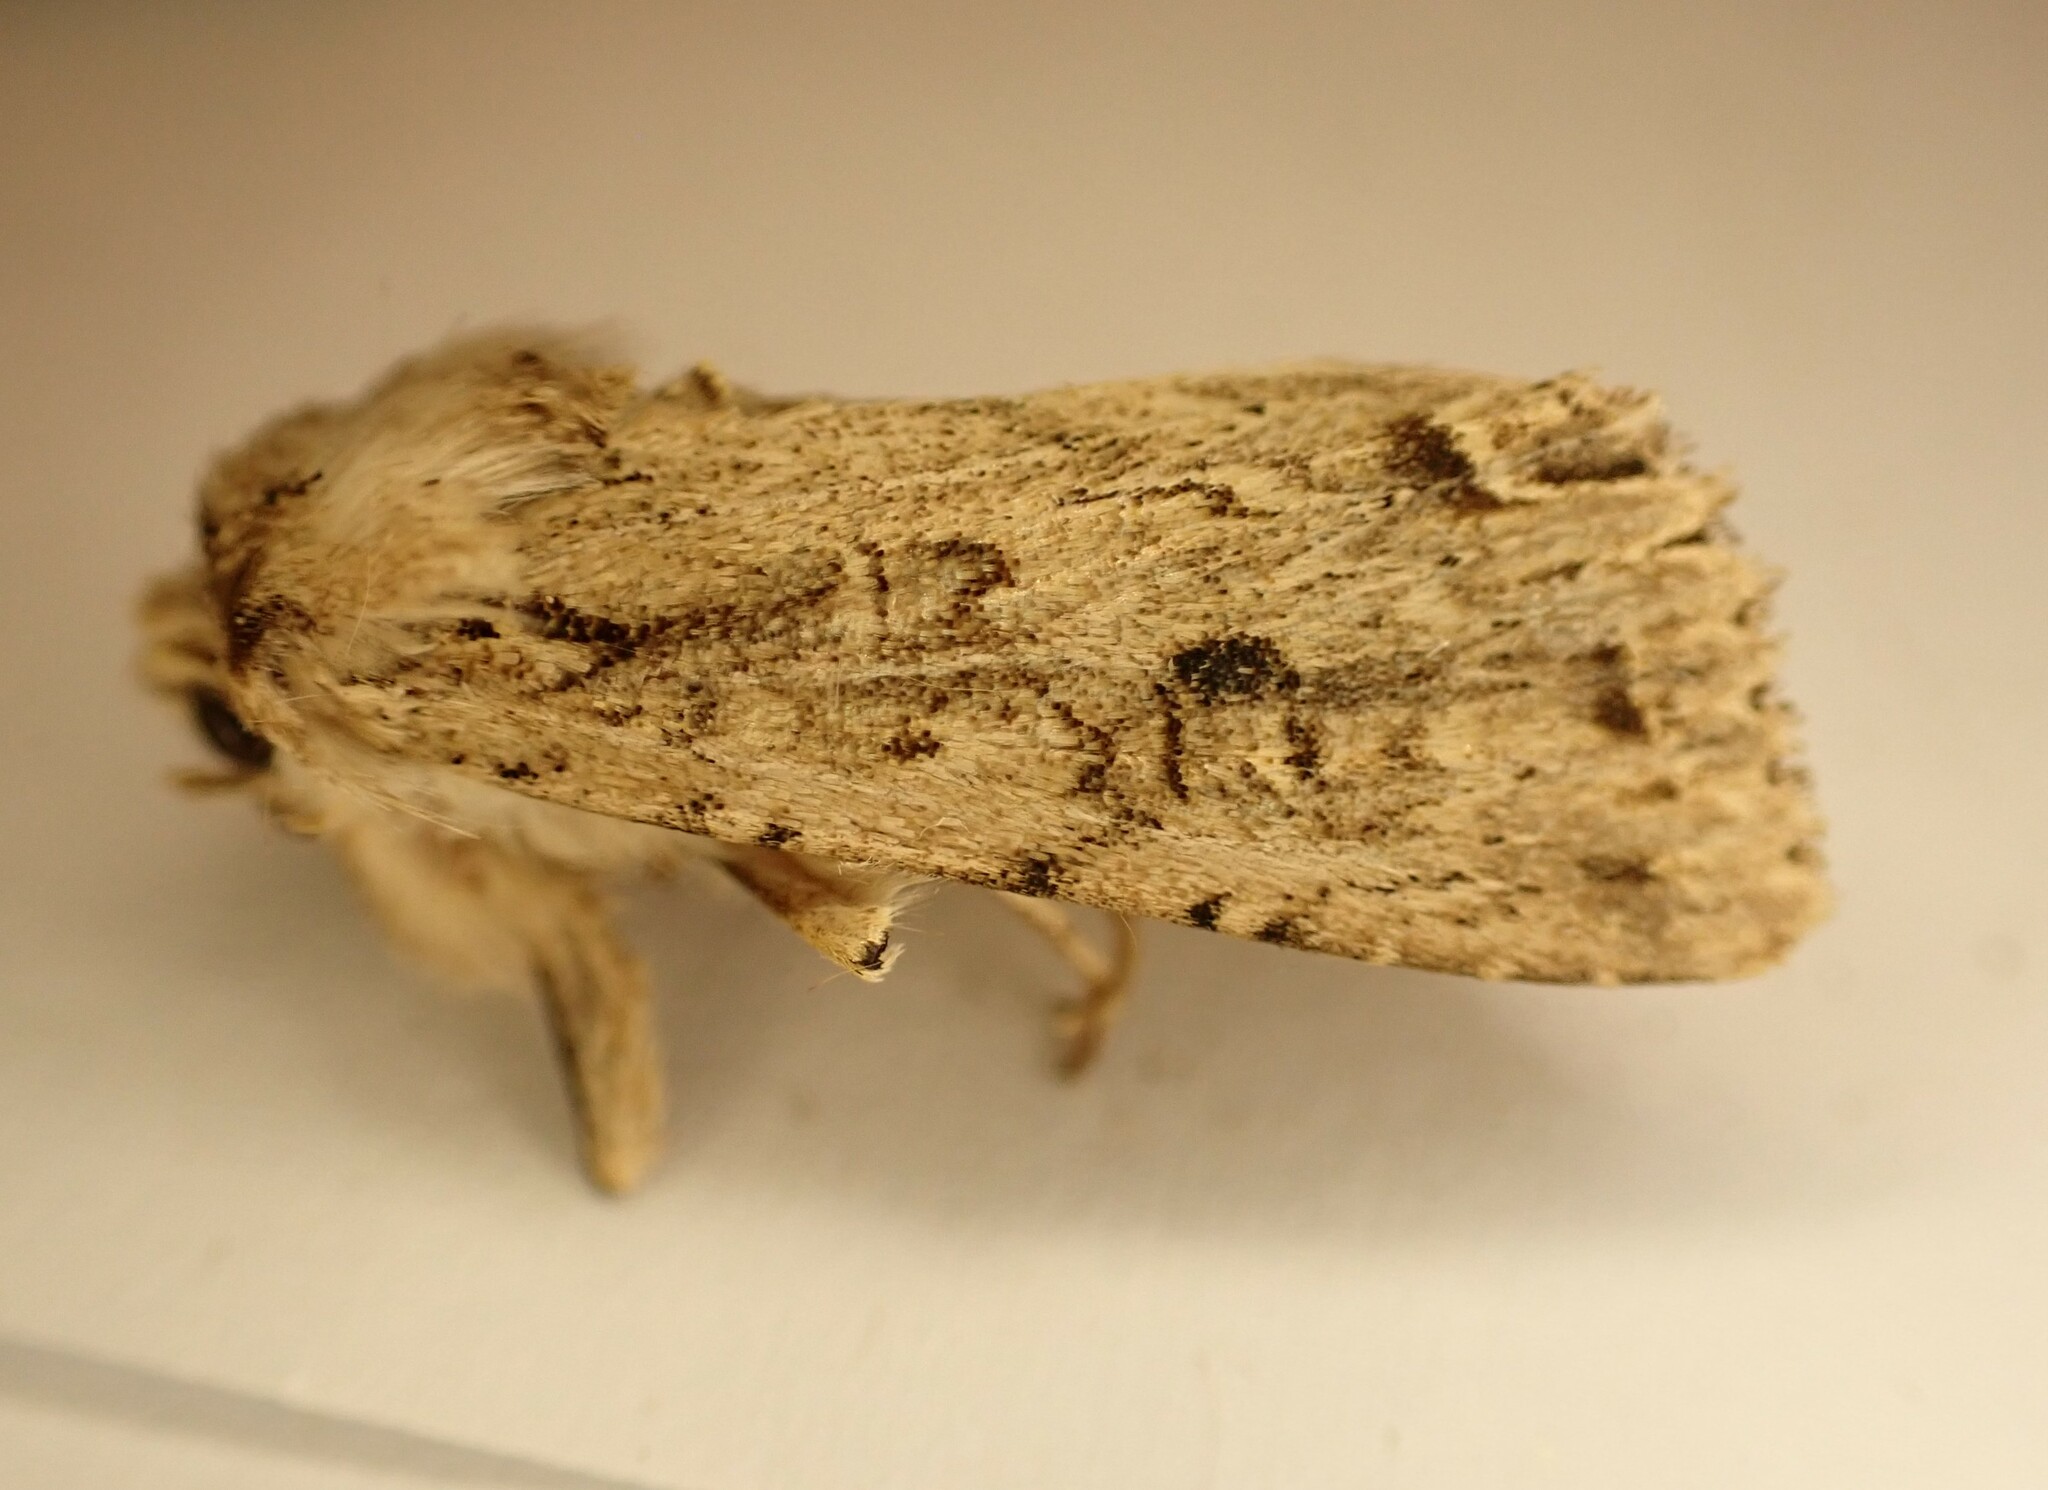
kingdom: Animalia
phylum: Arthropoda
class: Insecta
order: Lepidoptera
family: Noctuidae
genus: Ichneutica
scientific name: Ichneutica lignana
